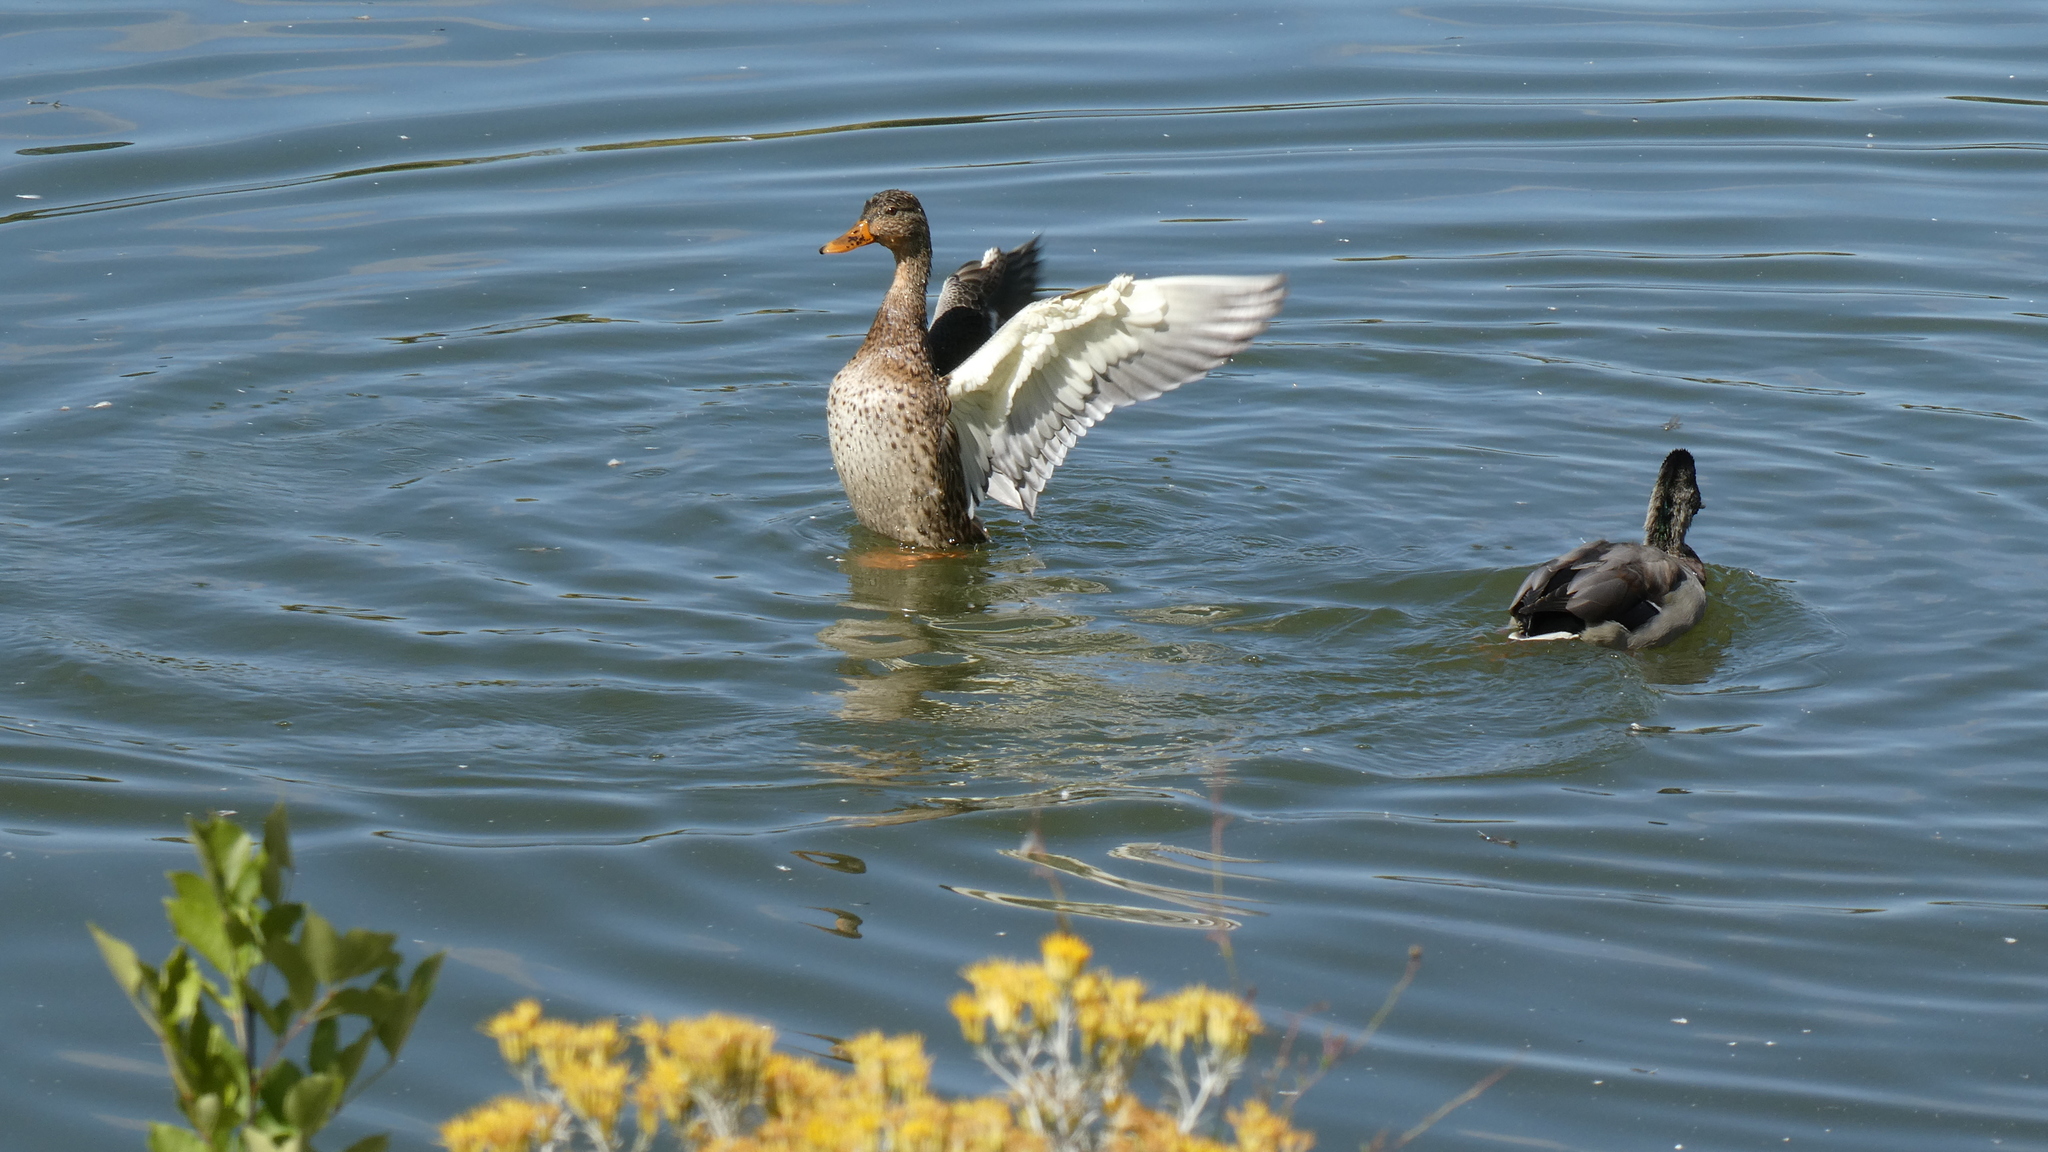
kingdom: Animalia
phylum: Chordata
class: Aves
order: Anseriformes
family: Anatidae
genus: Anas
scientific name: Anas platyrhynchos
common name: Mallard
